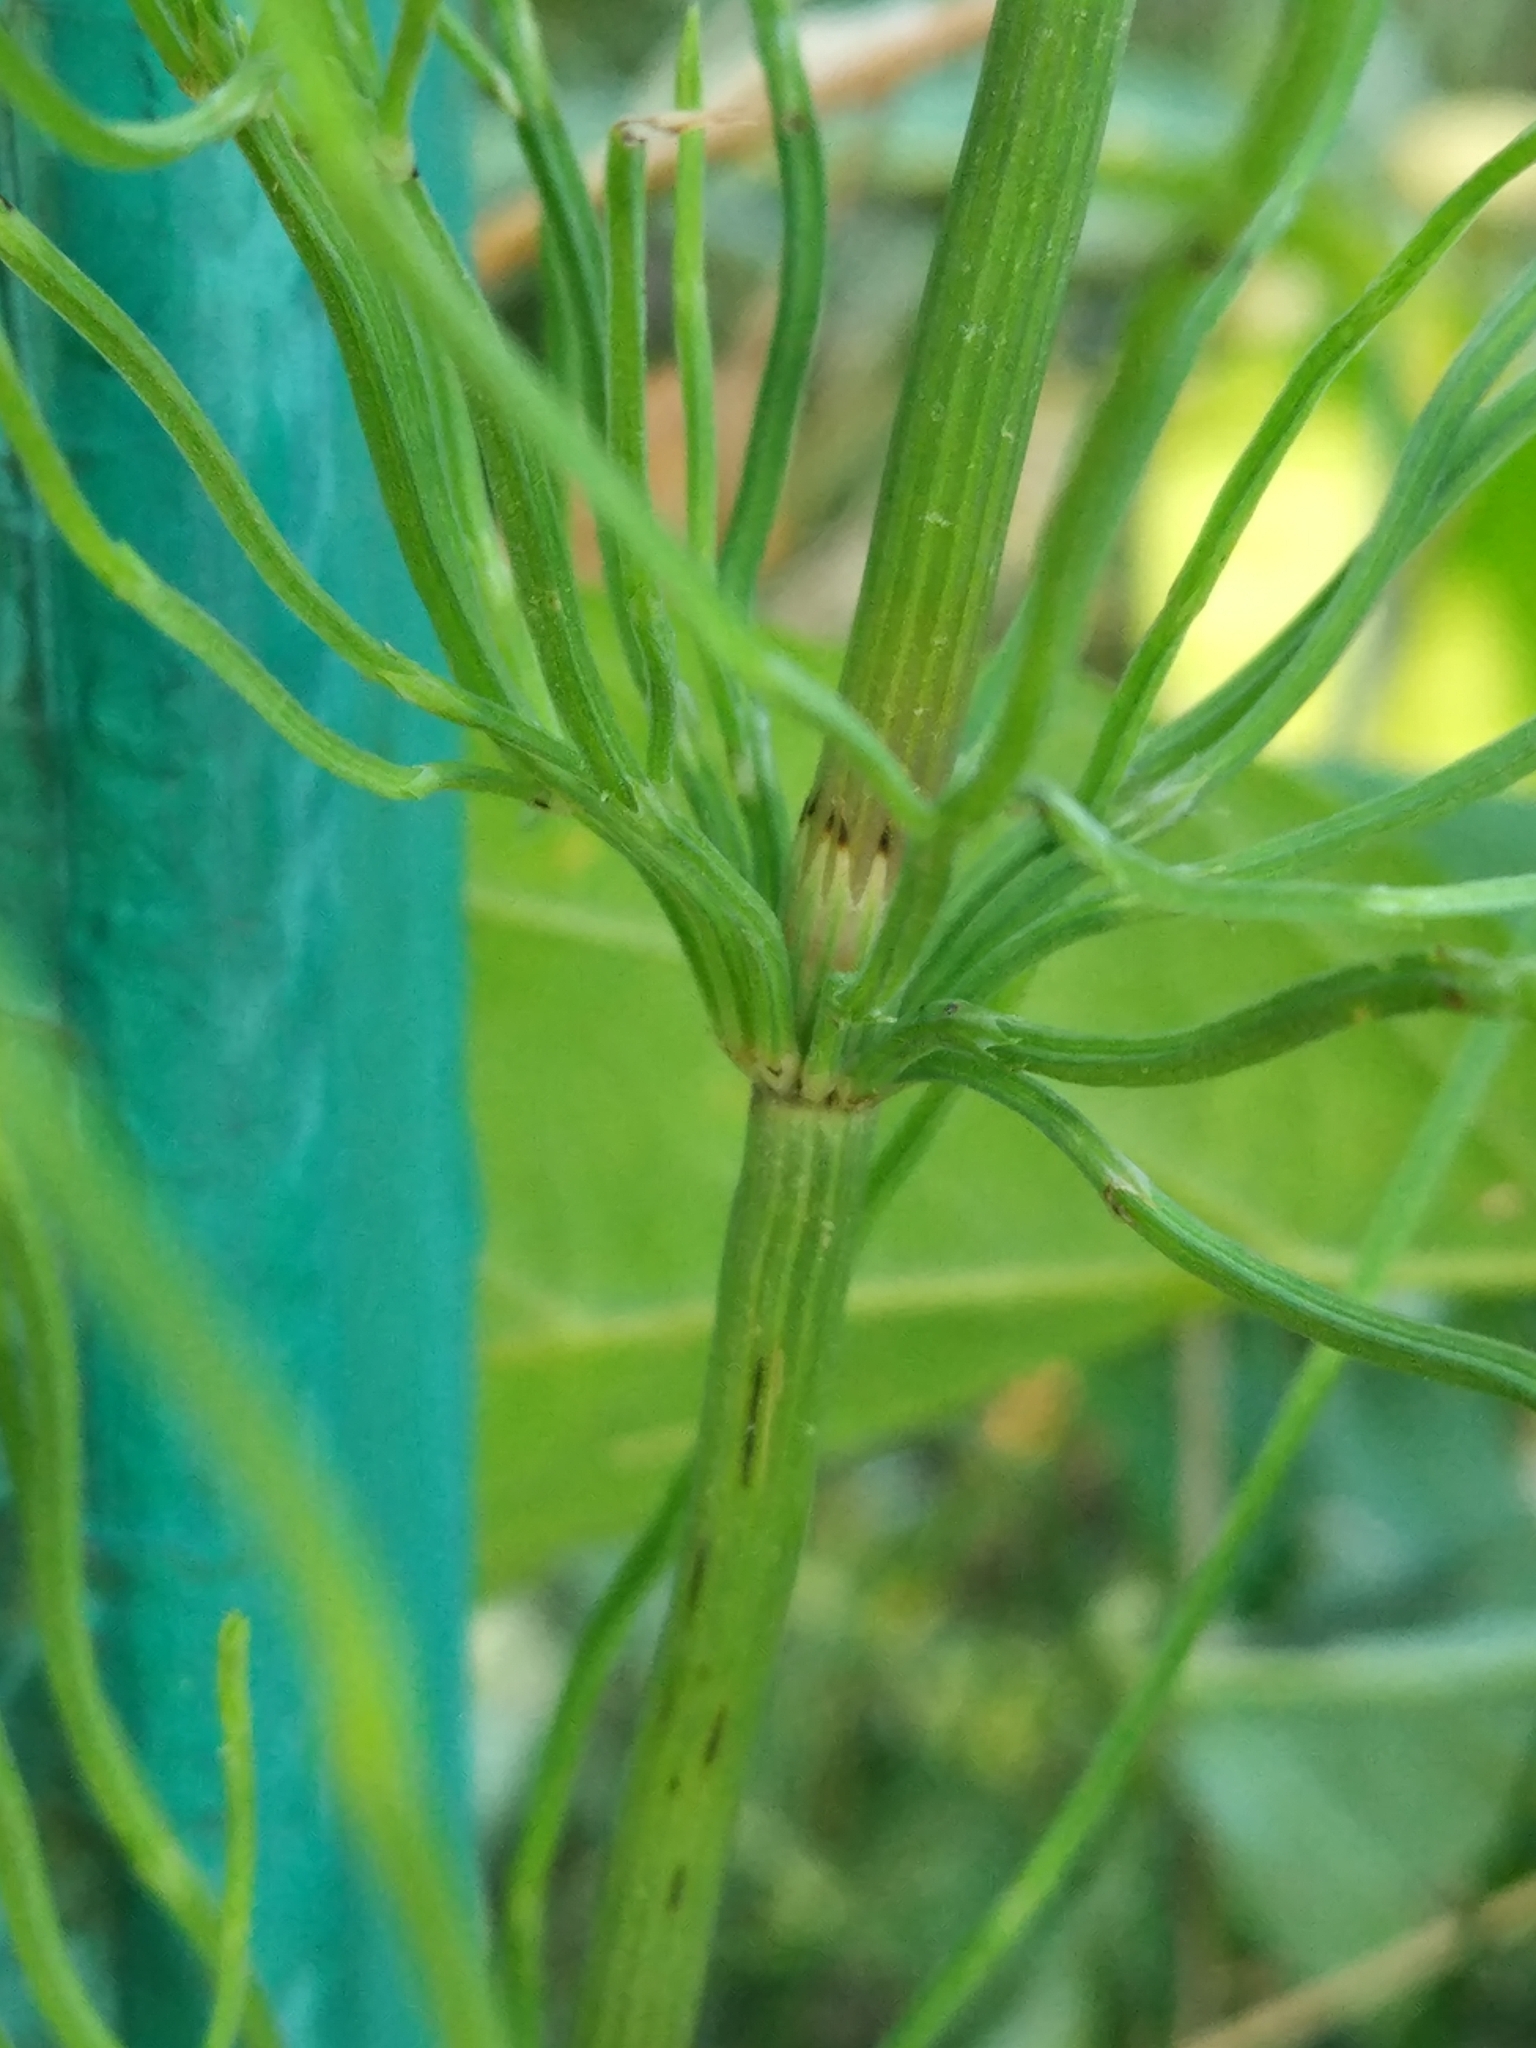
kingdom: Plantae
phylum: Tracheophyta
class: Polypodiopsida
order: Equisetales
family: Equisetaceae
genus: Equisetum
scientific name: Equisetum arvense
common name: Field horsetail
